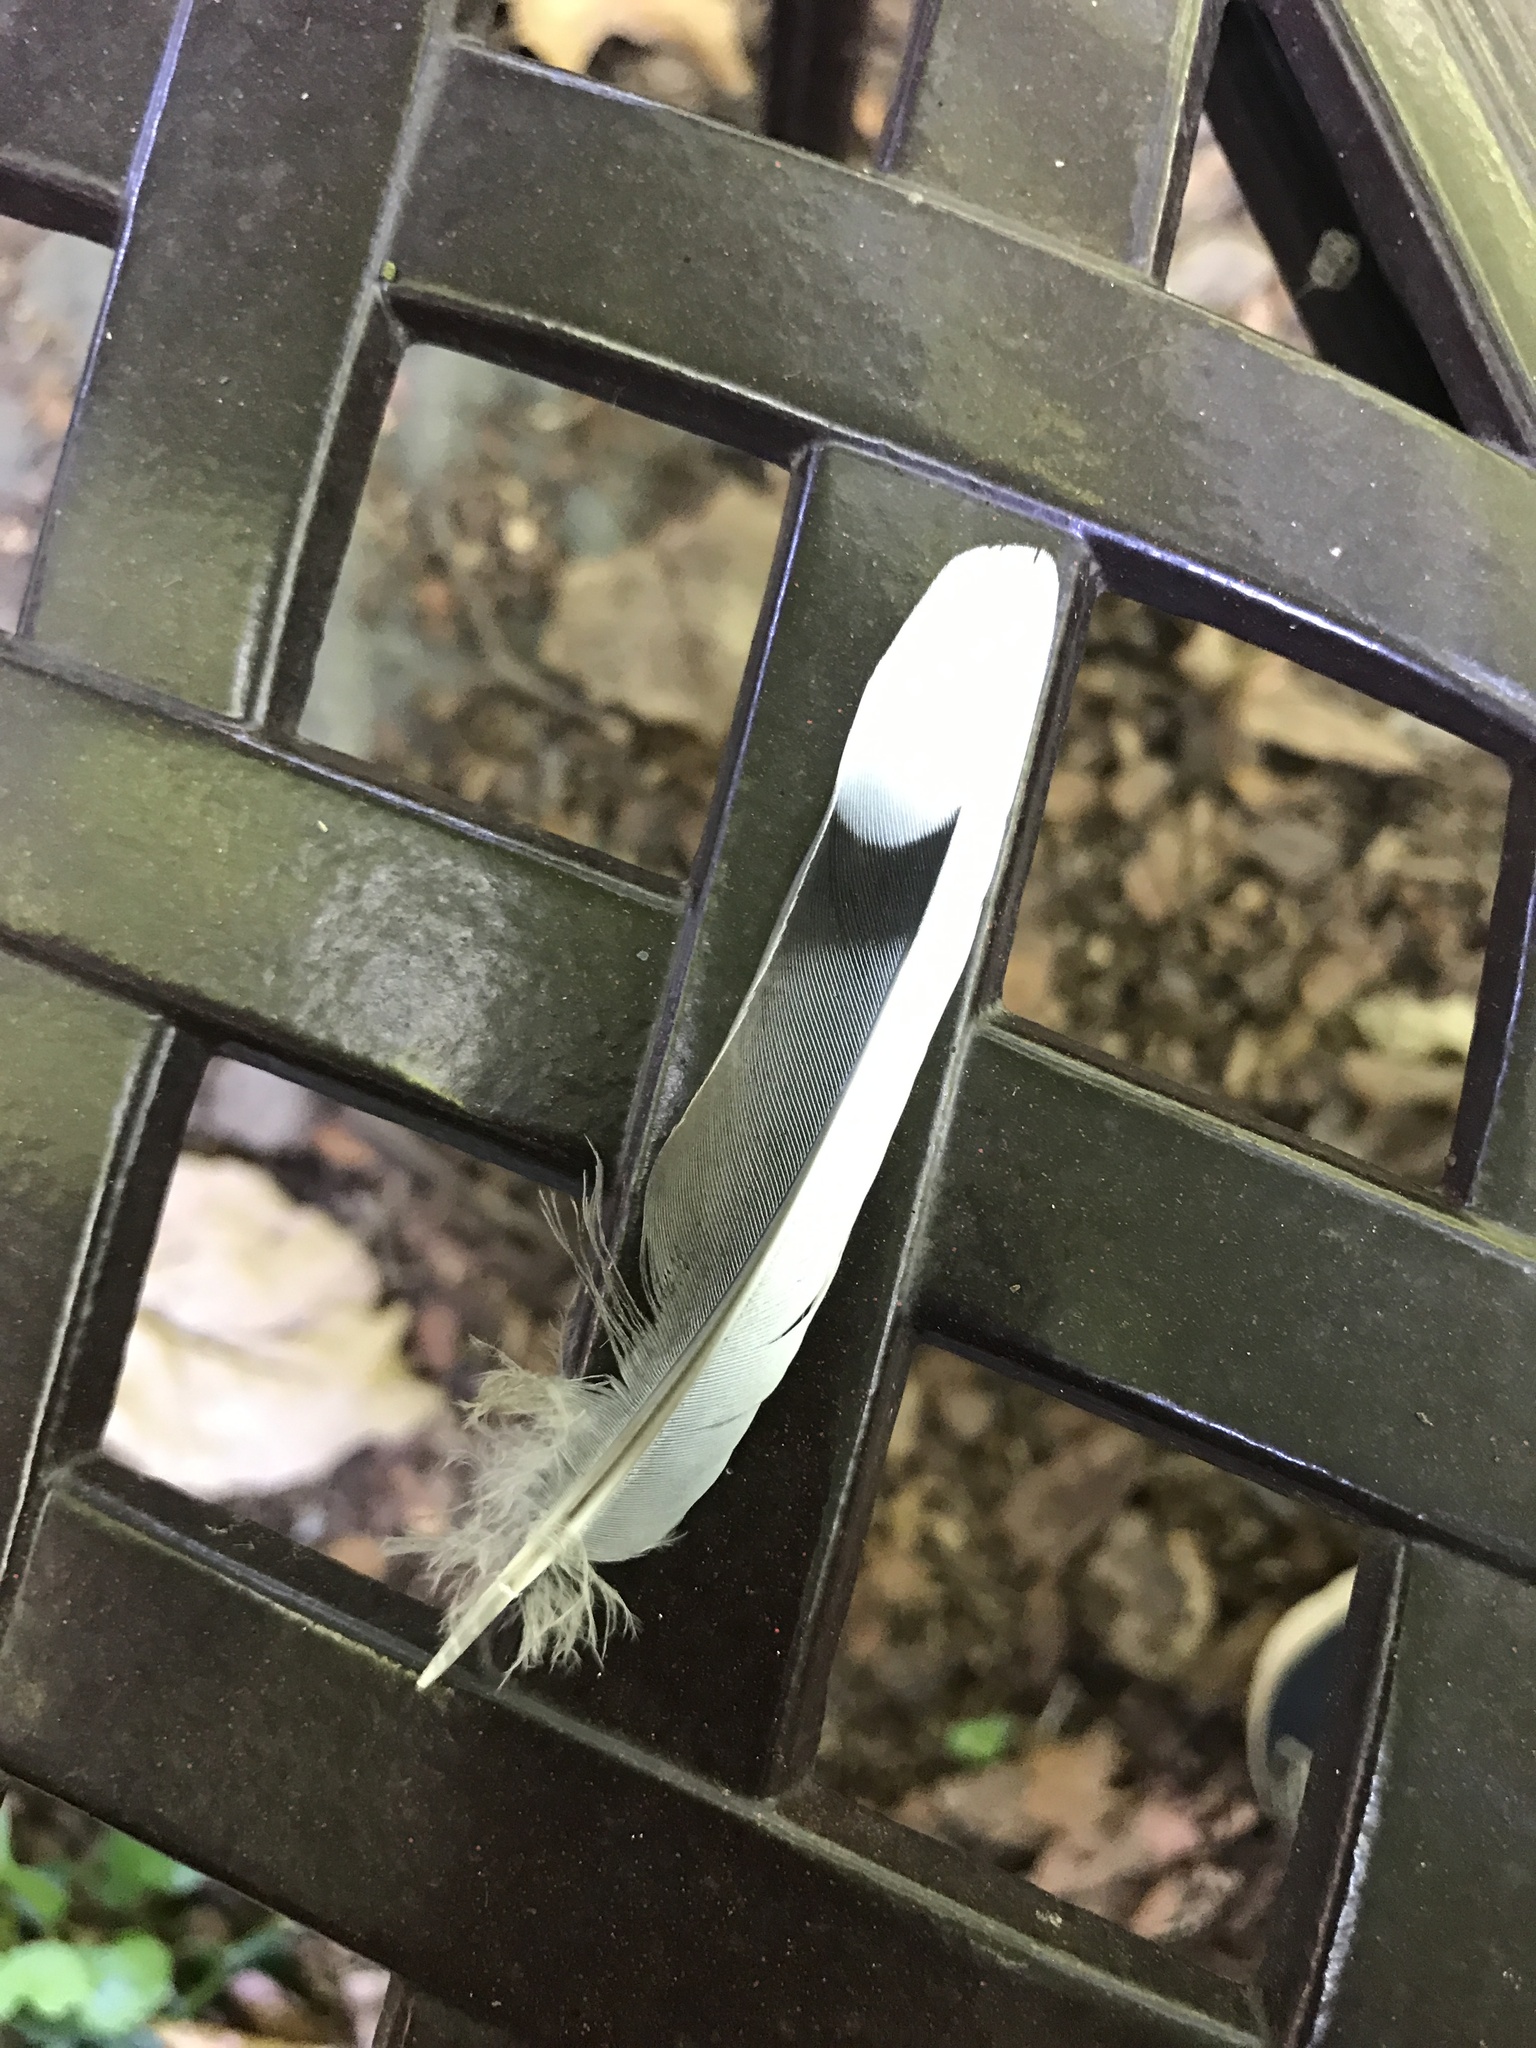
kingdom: Animalia
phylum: Chordata
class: Aves
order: Columbiformes
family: Columbidae
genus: Zenaida
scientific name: Zenaida macroura
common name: Mourning dove
